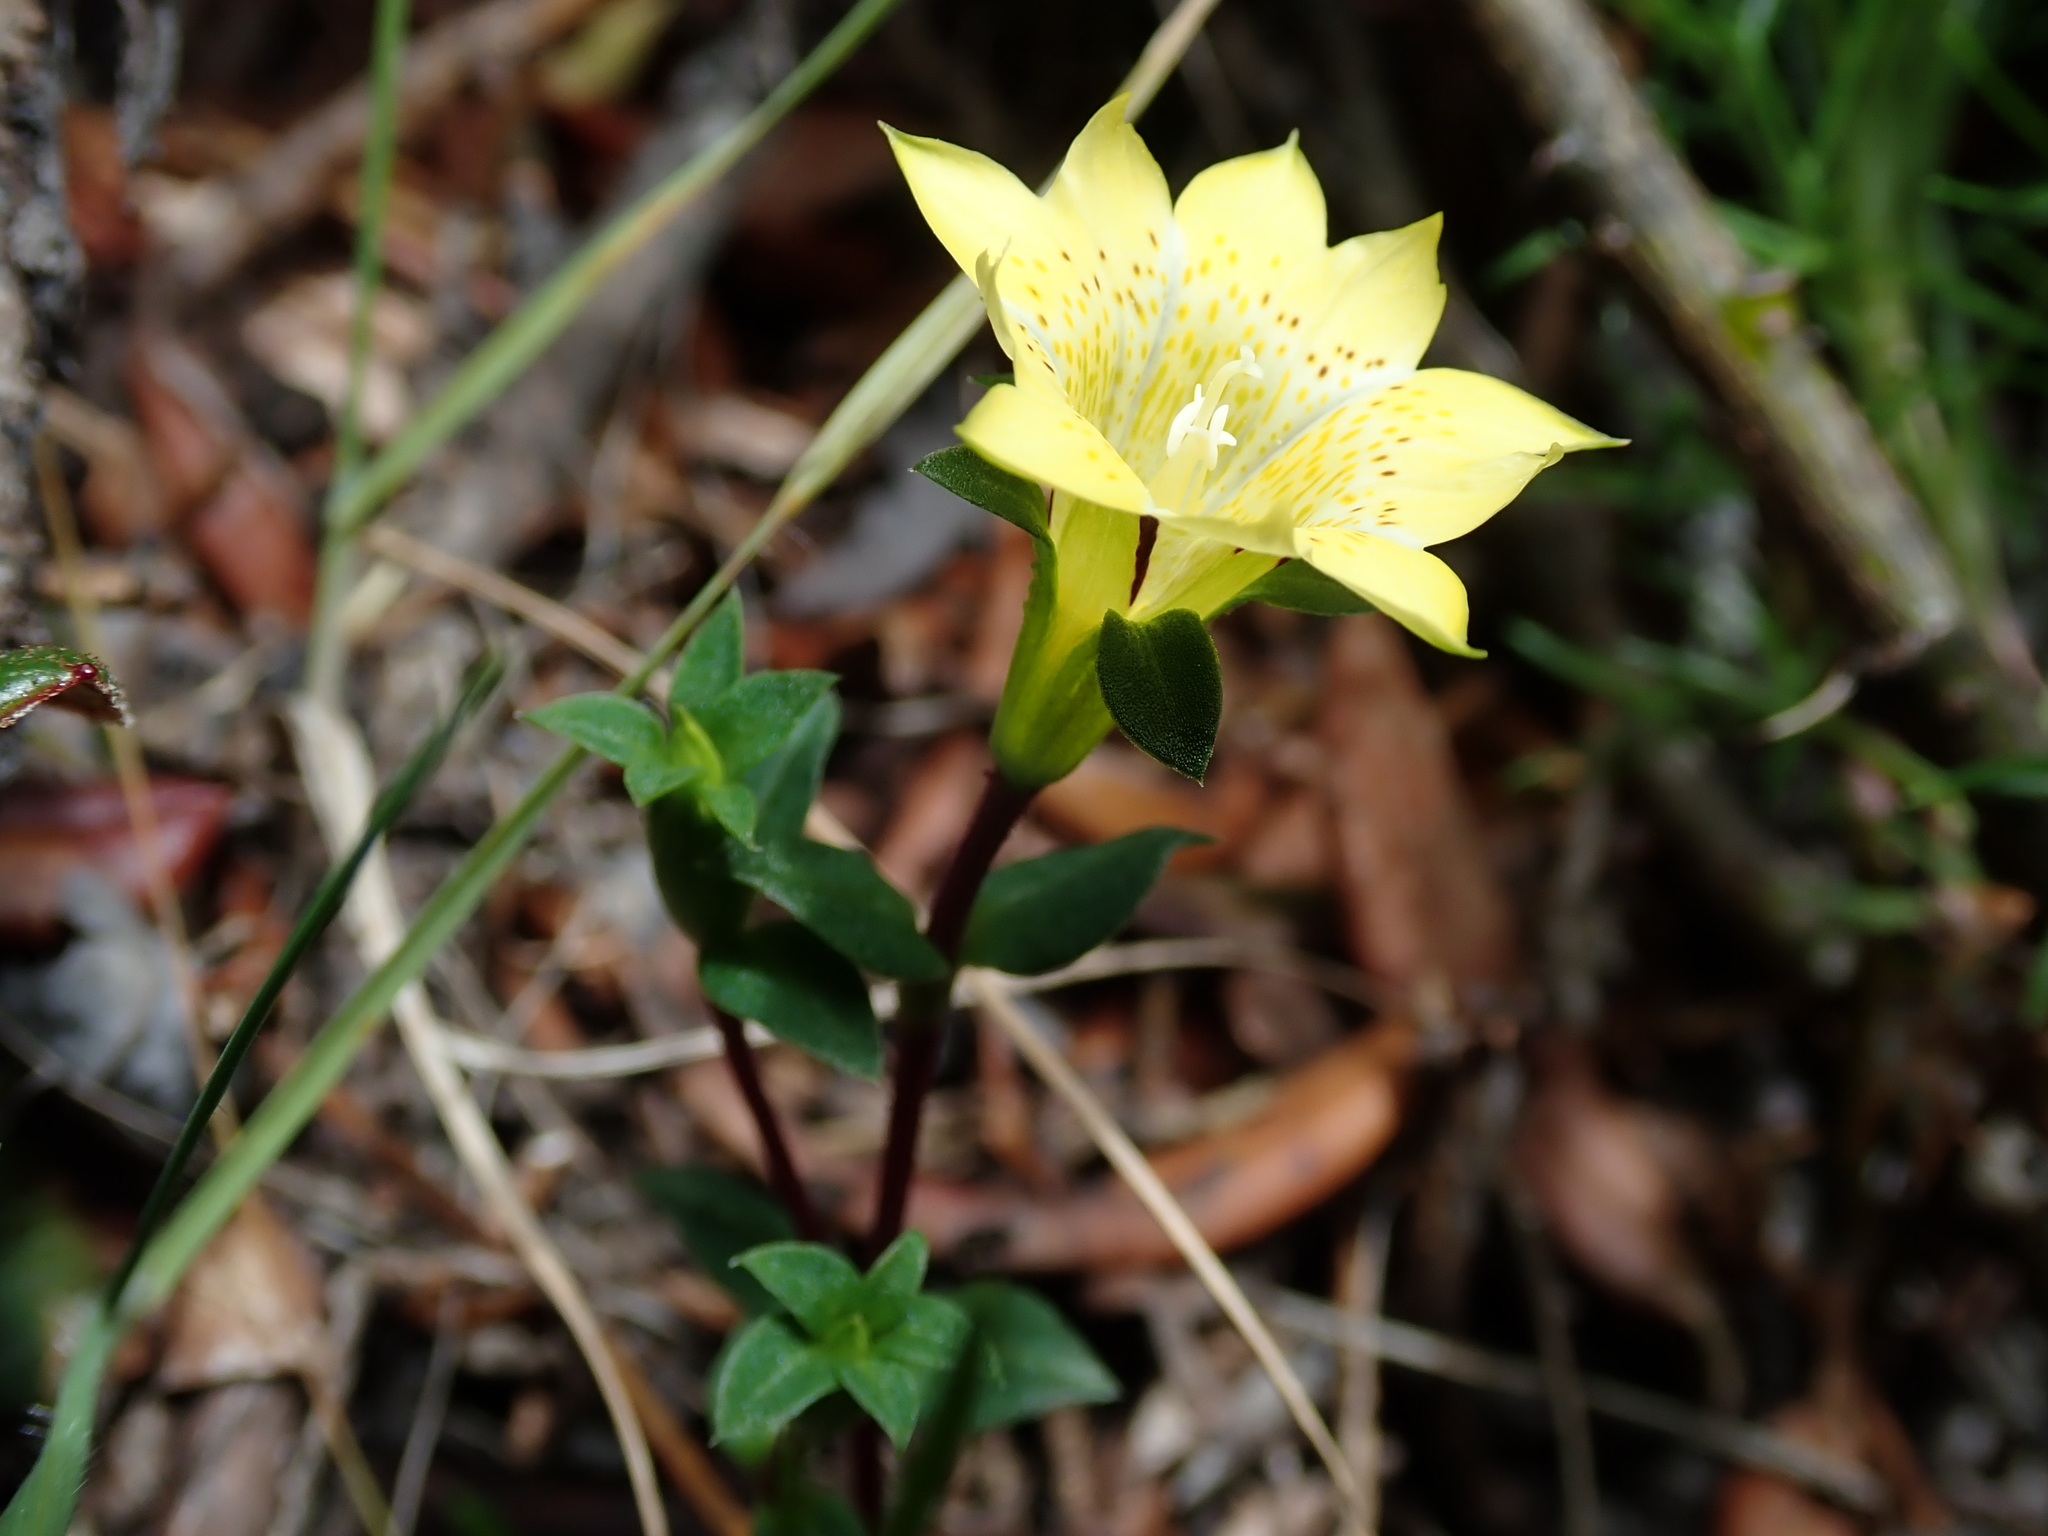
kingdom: Plantae
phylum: Tracheophyta
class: Magnoliopsida
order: Gentianales
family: Gentianaceae
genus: Gentiana
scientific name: Gentiana scabrida
